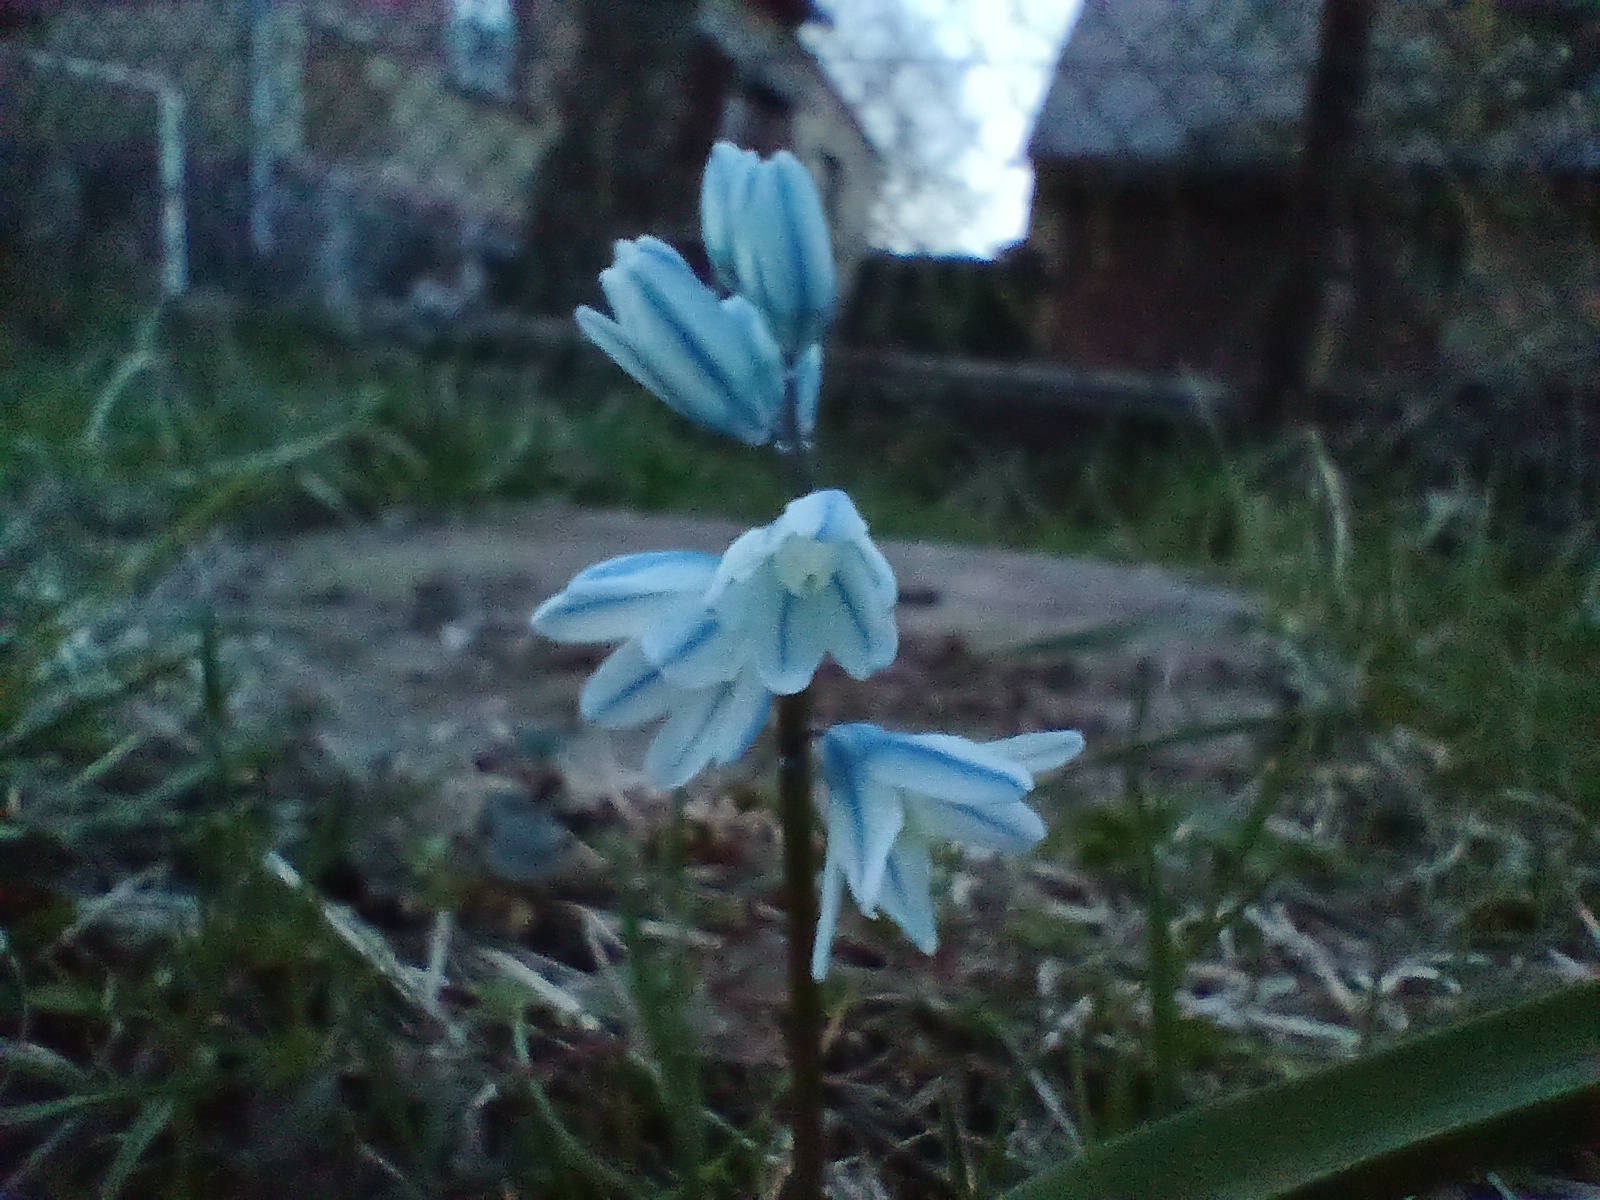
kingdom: Plantae
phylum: Tracheophyta
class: Liliopsida
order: Asparagales
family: Asparagaceae
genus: Puschkinia
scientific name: Puschkinia scilloides
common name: Striped squill
